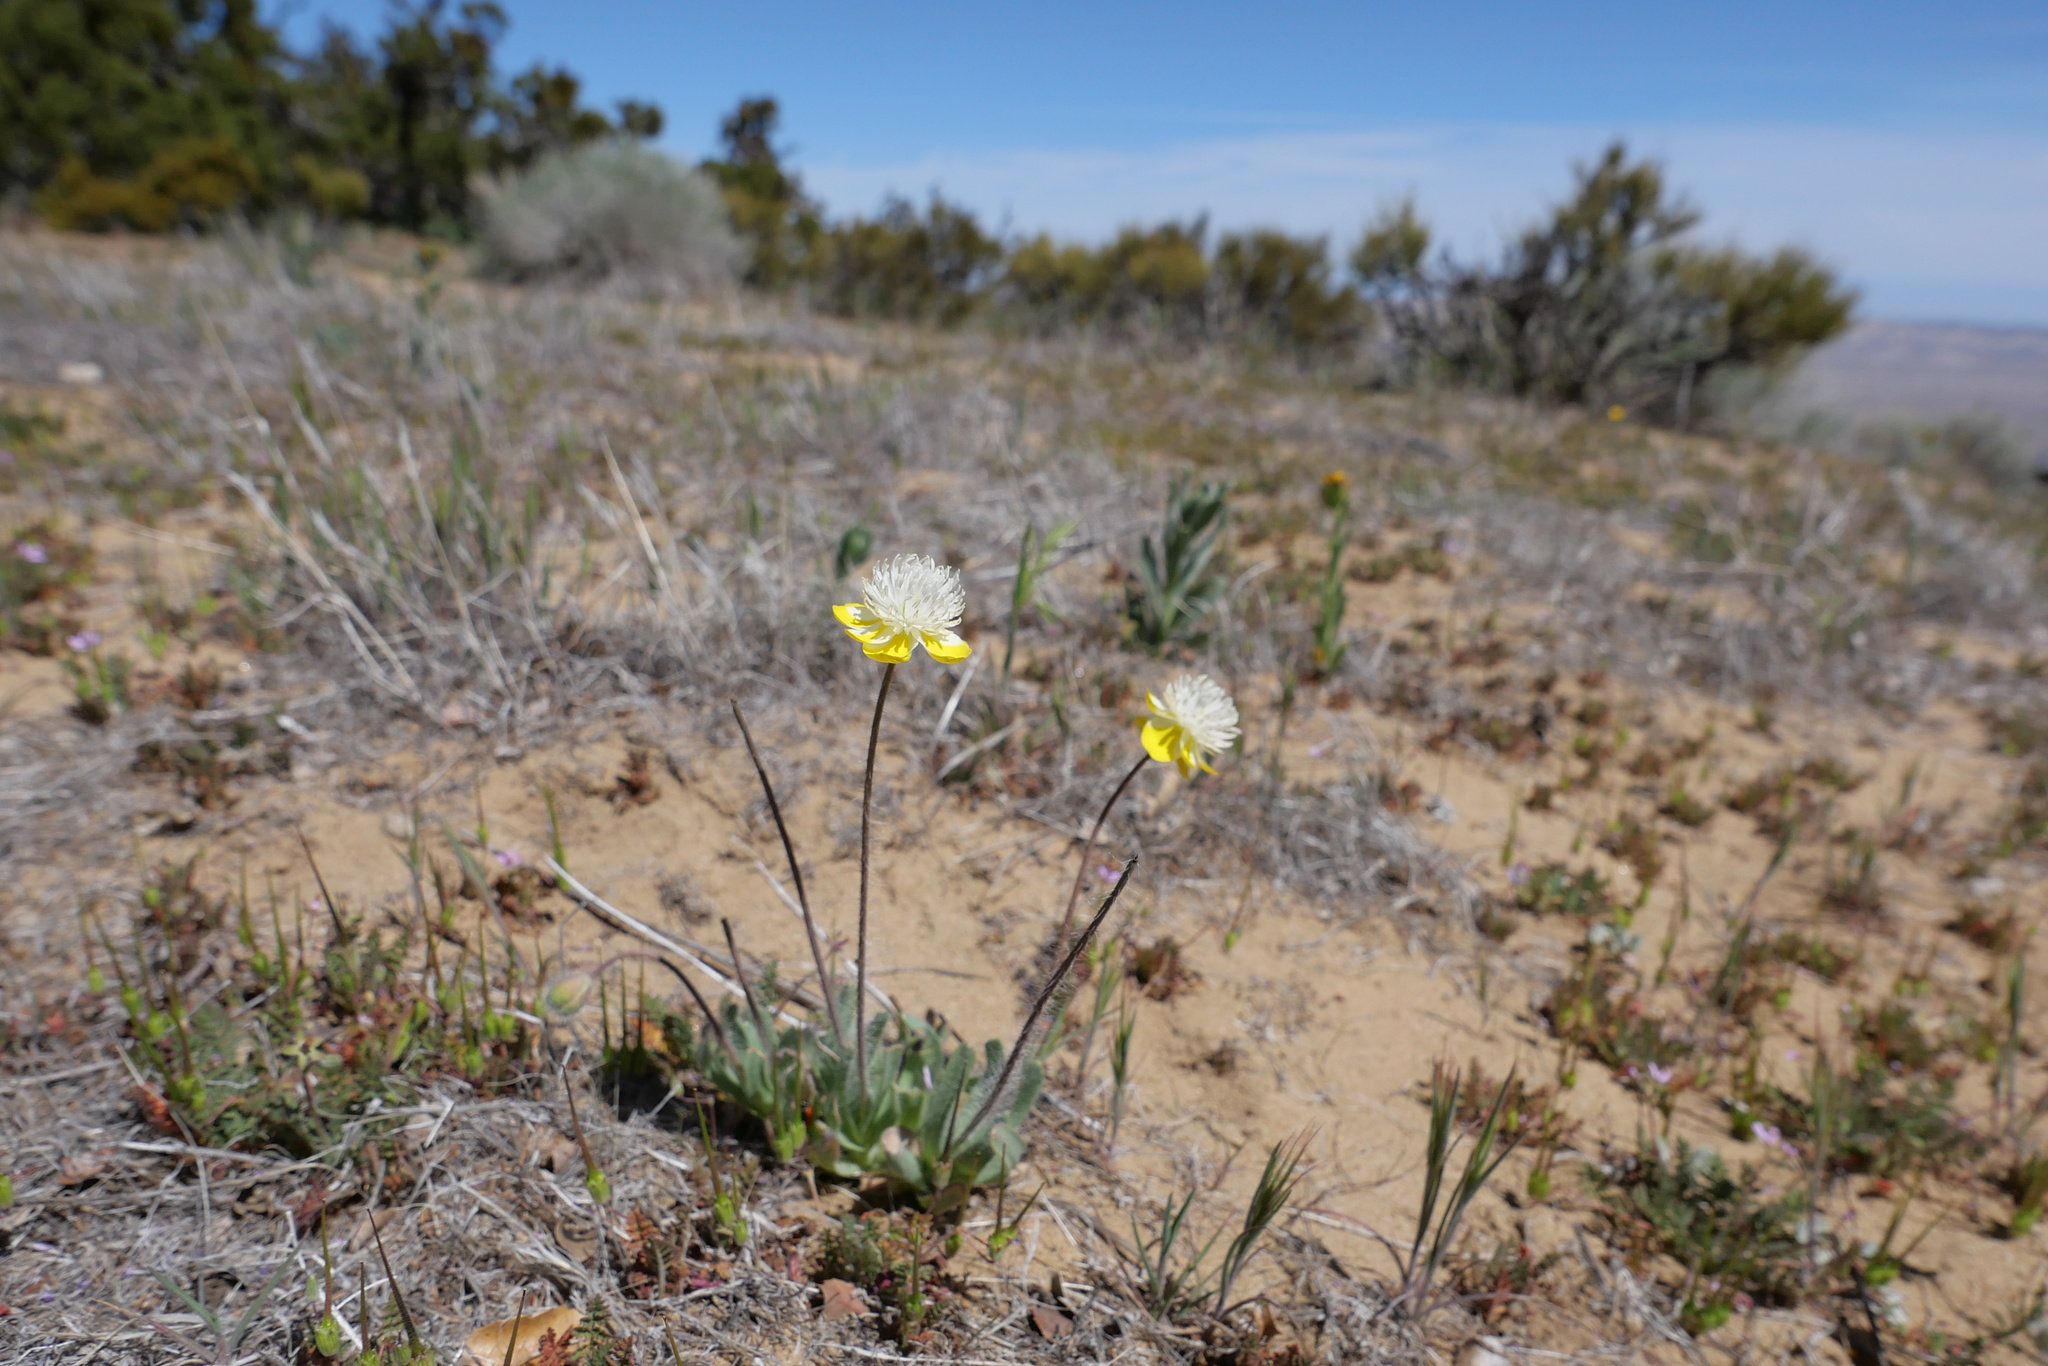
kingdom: Plantae
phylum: Tracheophyta
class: Magnoliopsida
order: Ranunculales
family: Papaveraceae
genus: Platystemon
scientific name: Platystemon californicus
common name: Cream-cups
